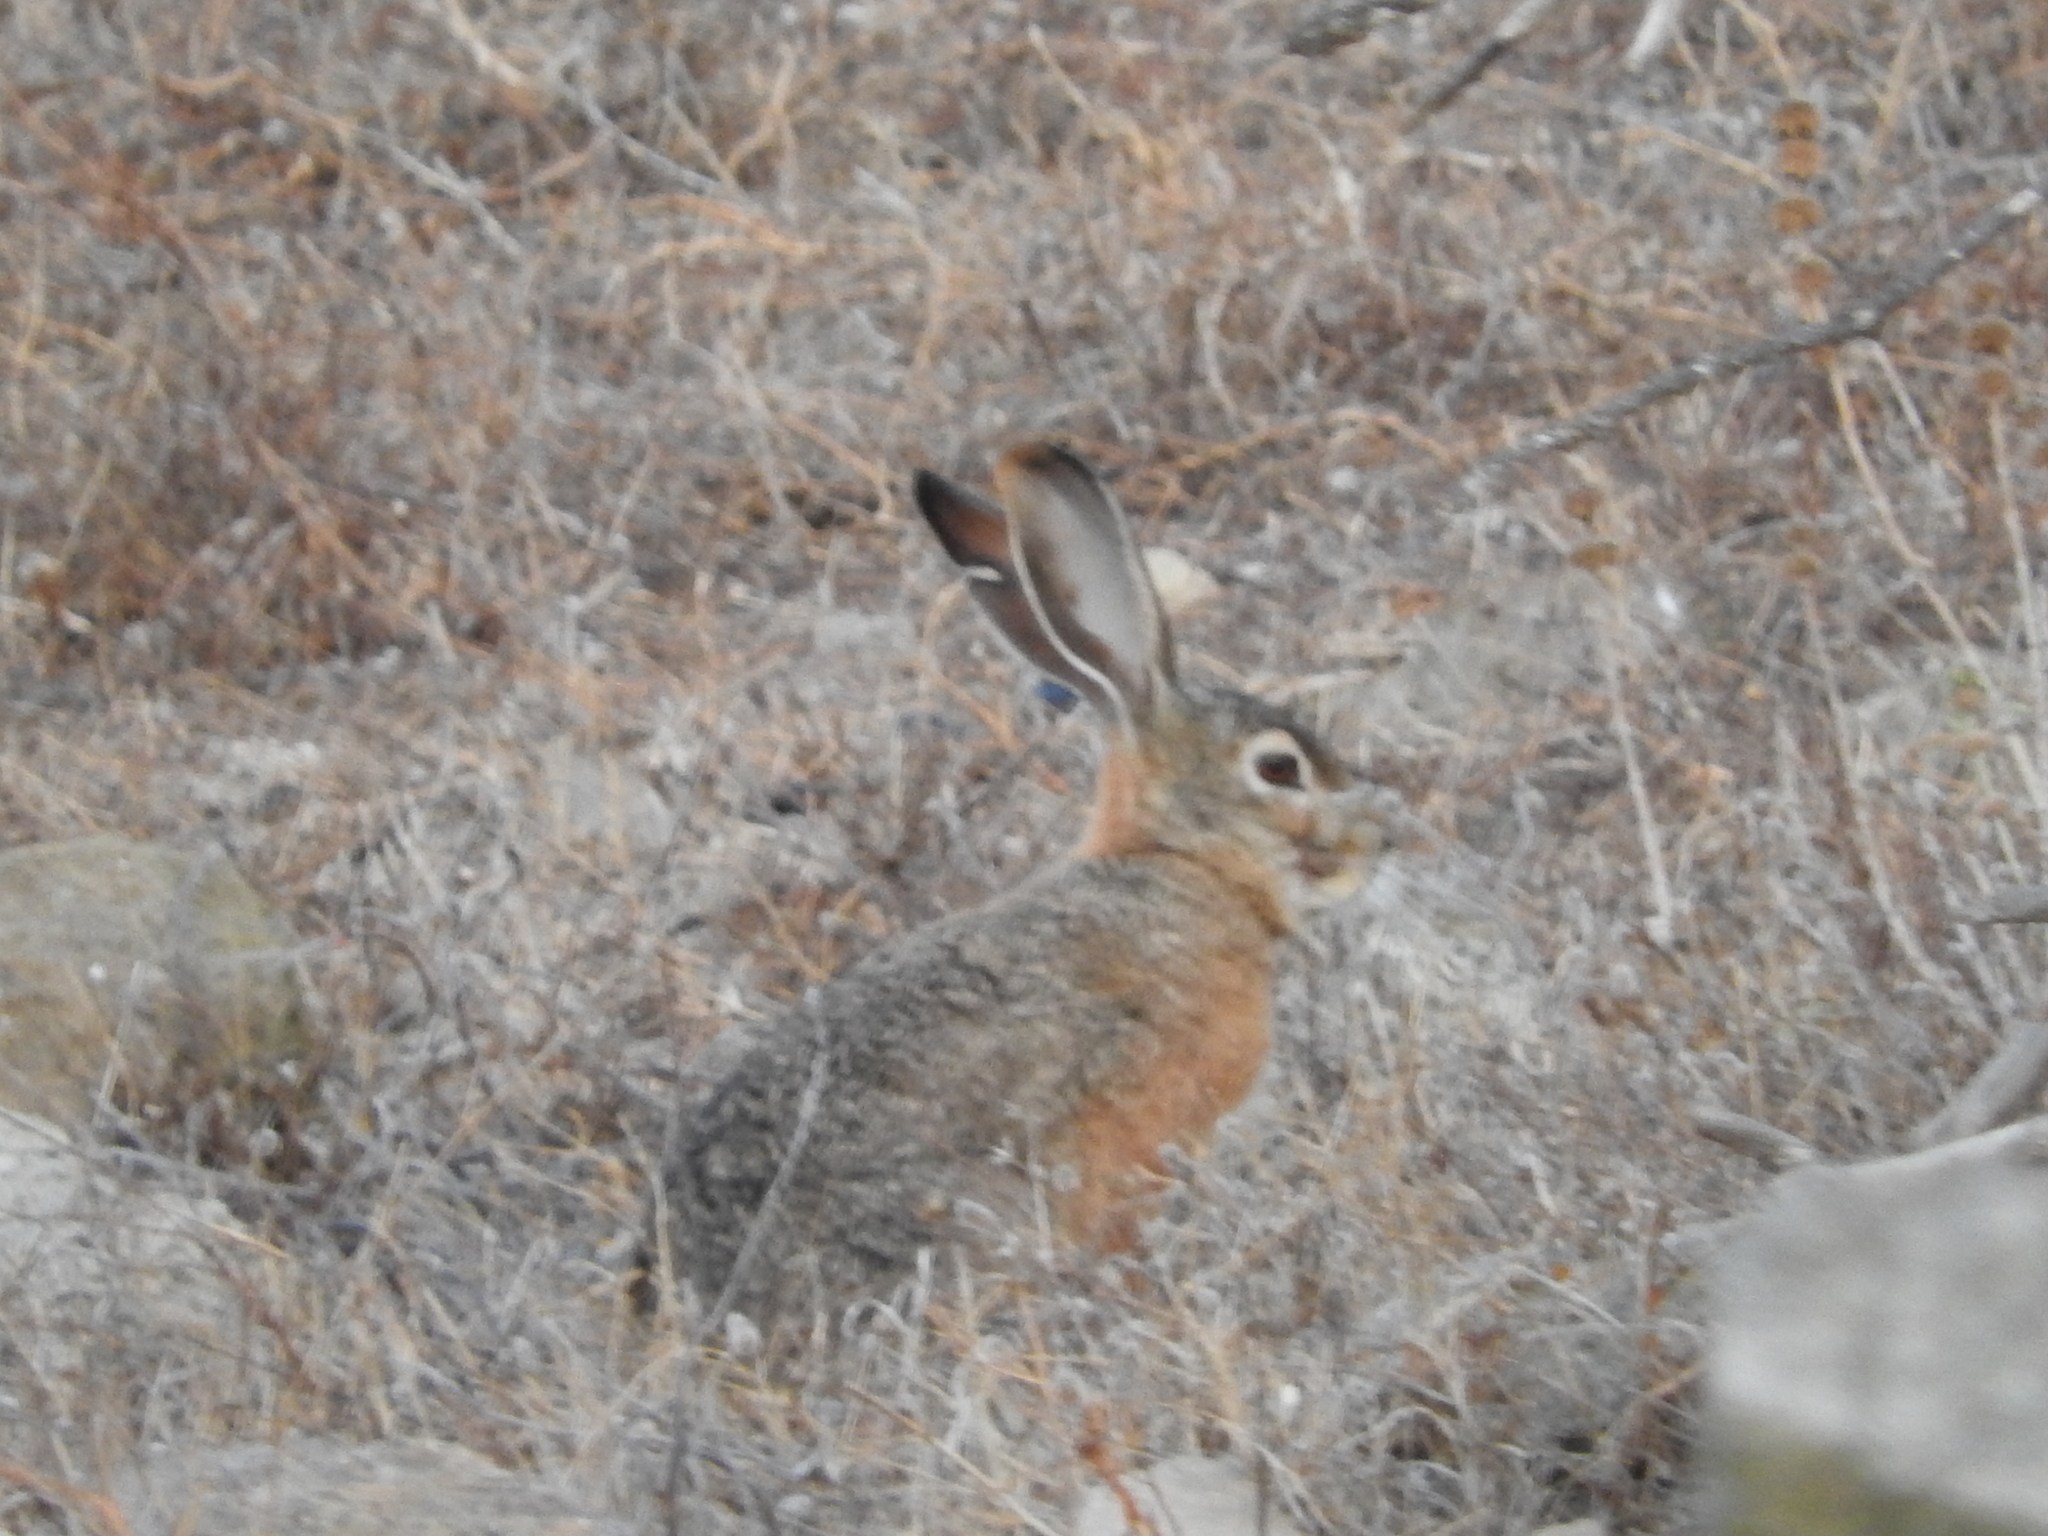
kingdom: Animalia
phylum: Chordata
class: Mammalia
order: Lagomorpha
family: Leporidae
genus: Lepus
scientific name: Lepus capensis
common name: Cape hare
